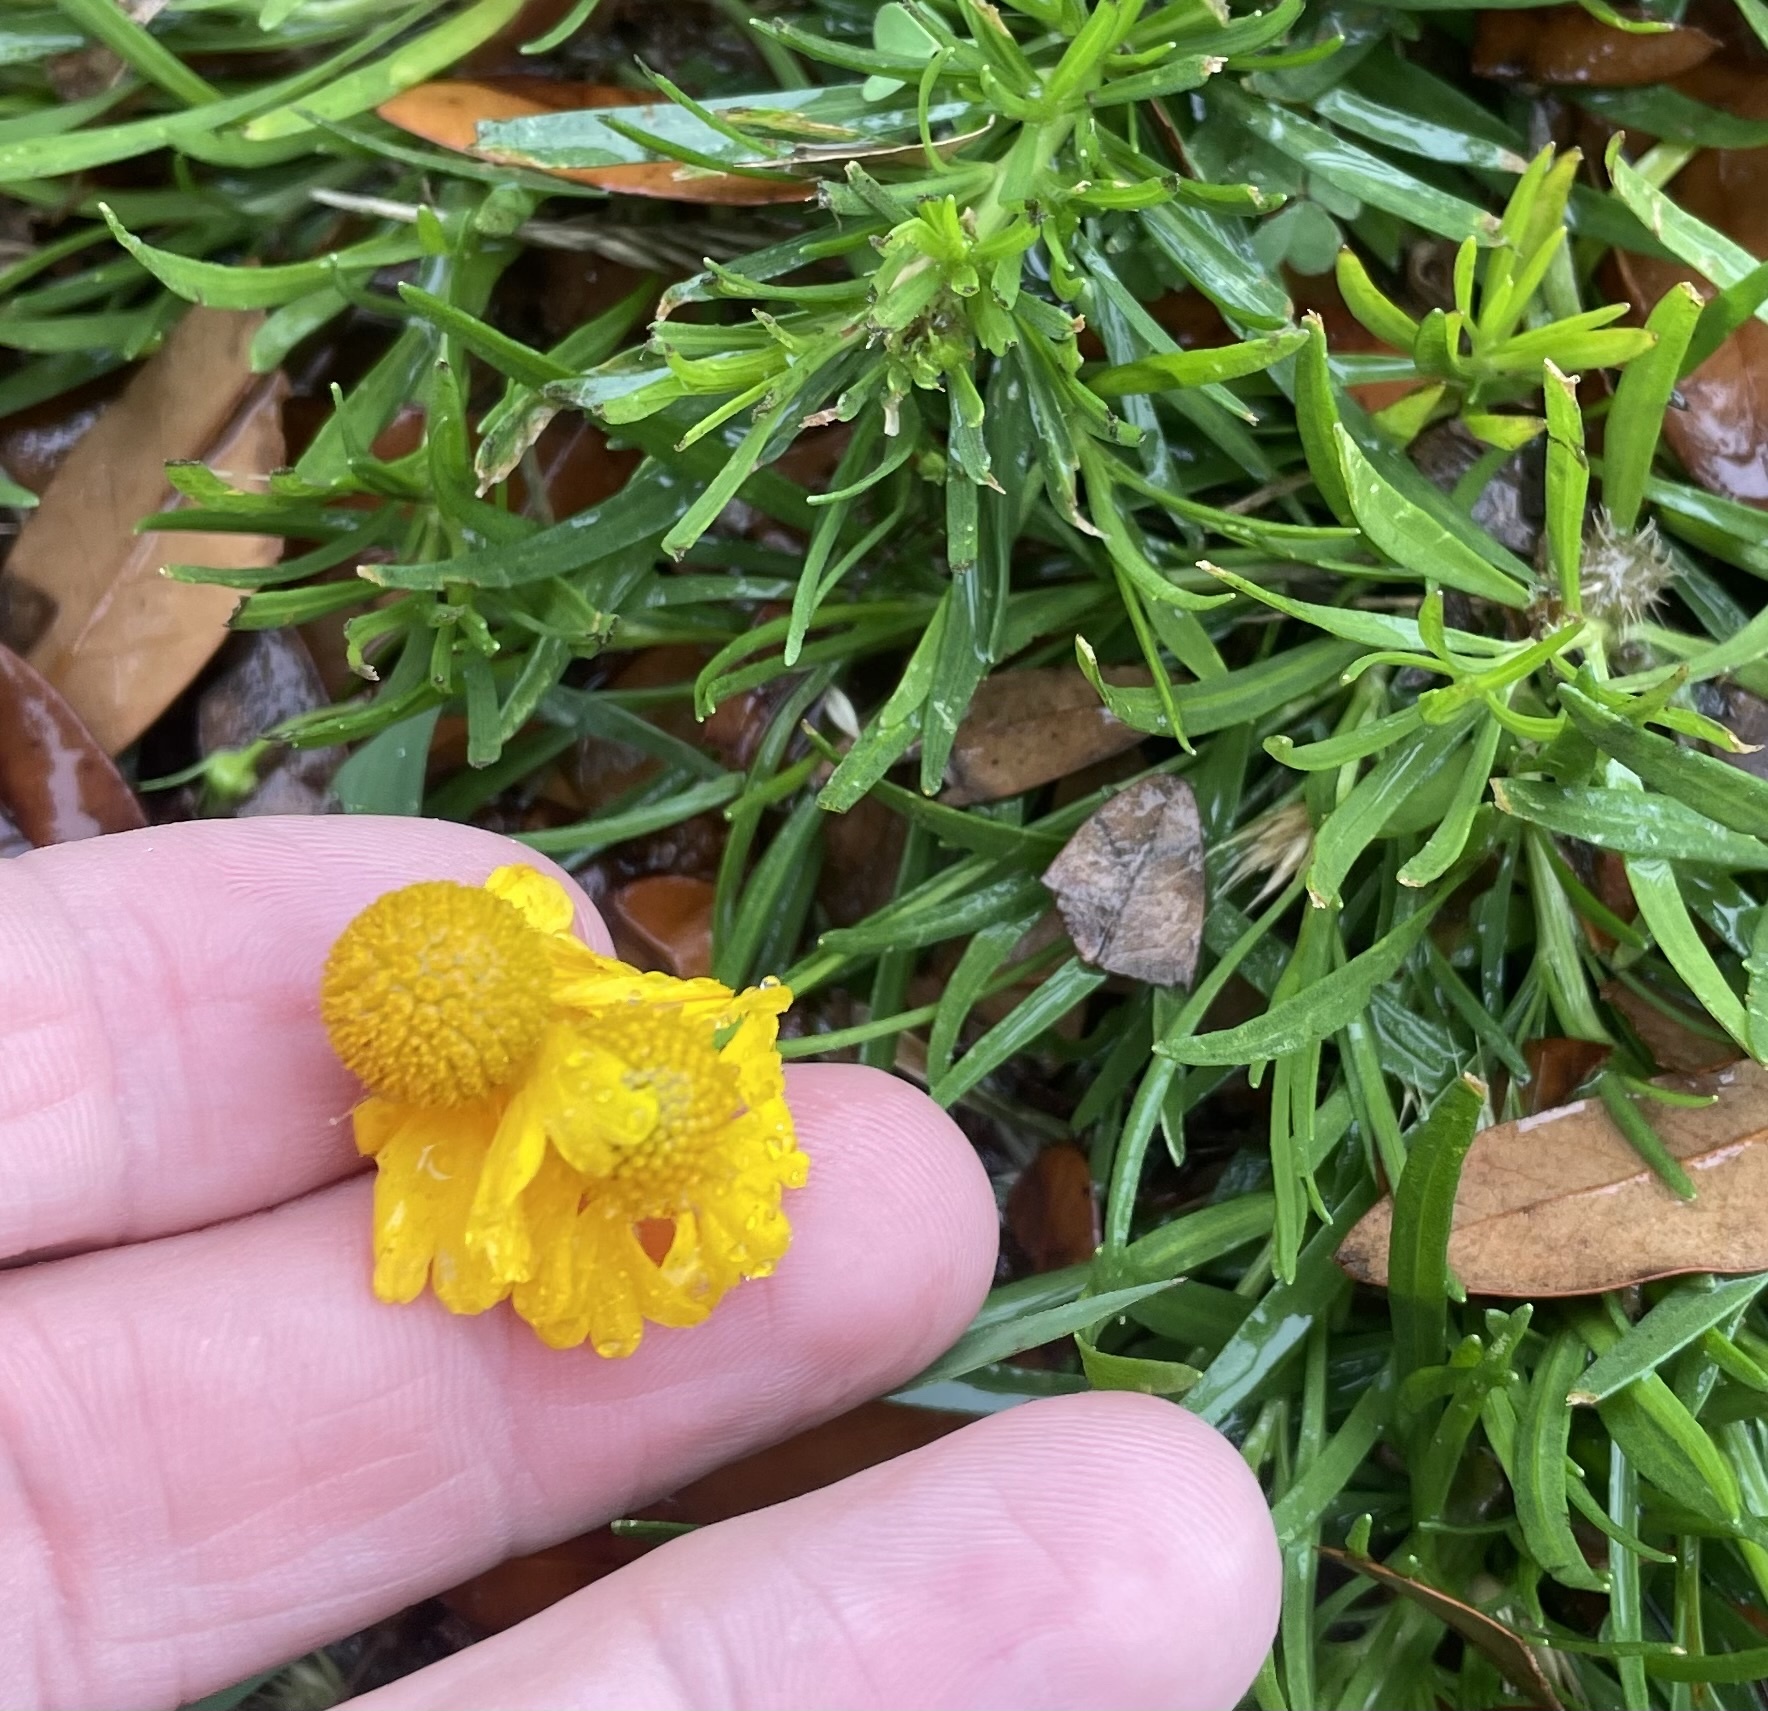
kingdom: Plantae
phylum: Tracheophyta
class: Magnoliopsida
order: Asterales
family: Asteraceae
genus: Helenium
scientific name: Helenium amarum
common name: Bitter sneezeweed
